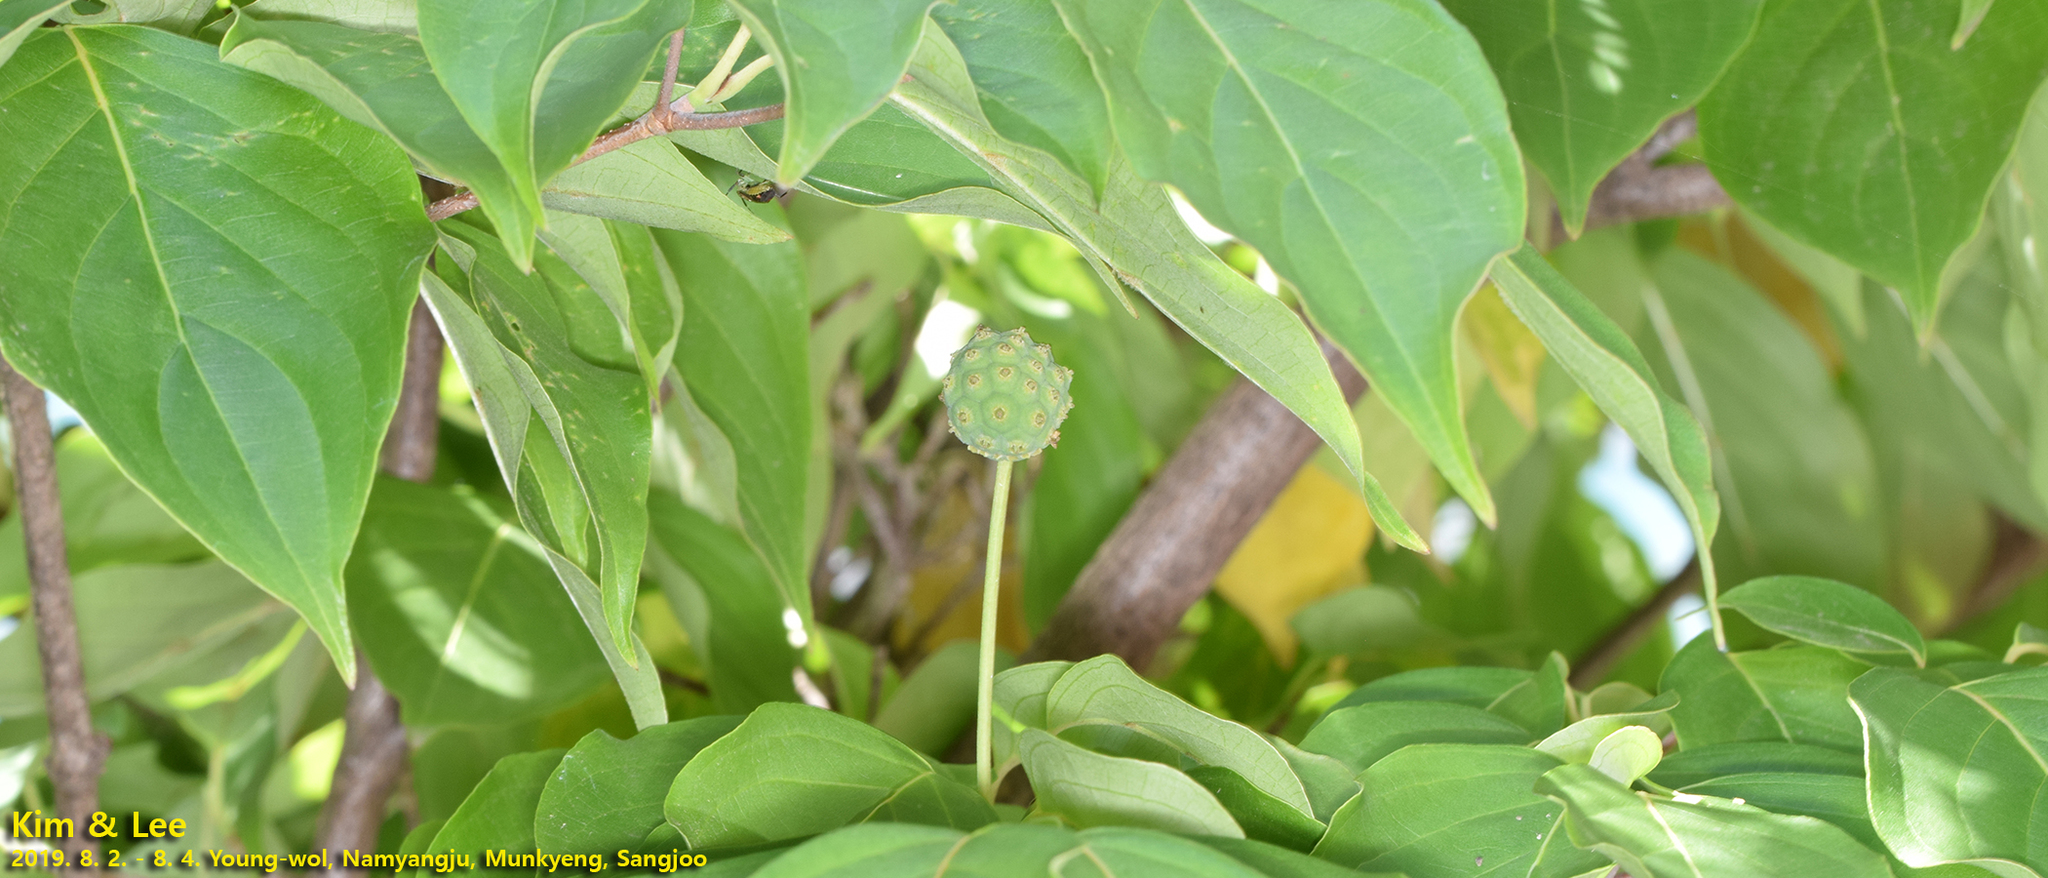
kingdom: Plantae
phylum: Tracheophyta
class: Magnoliopsida
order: Cornales
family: Cornaceae
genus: Cornus
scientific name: Cornus kousa
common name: Japanese dogwood
